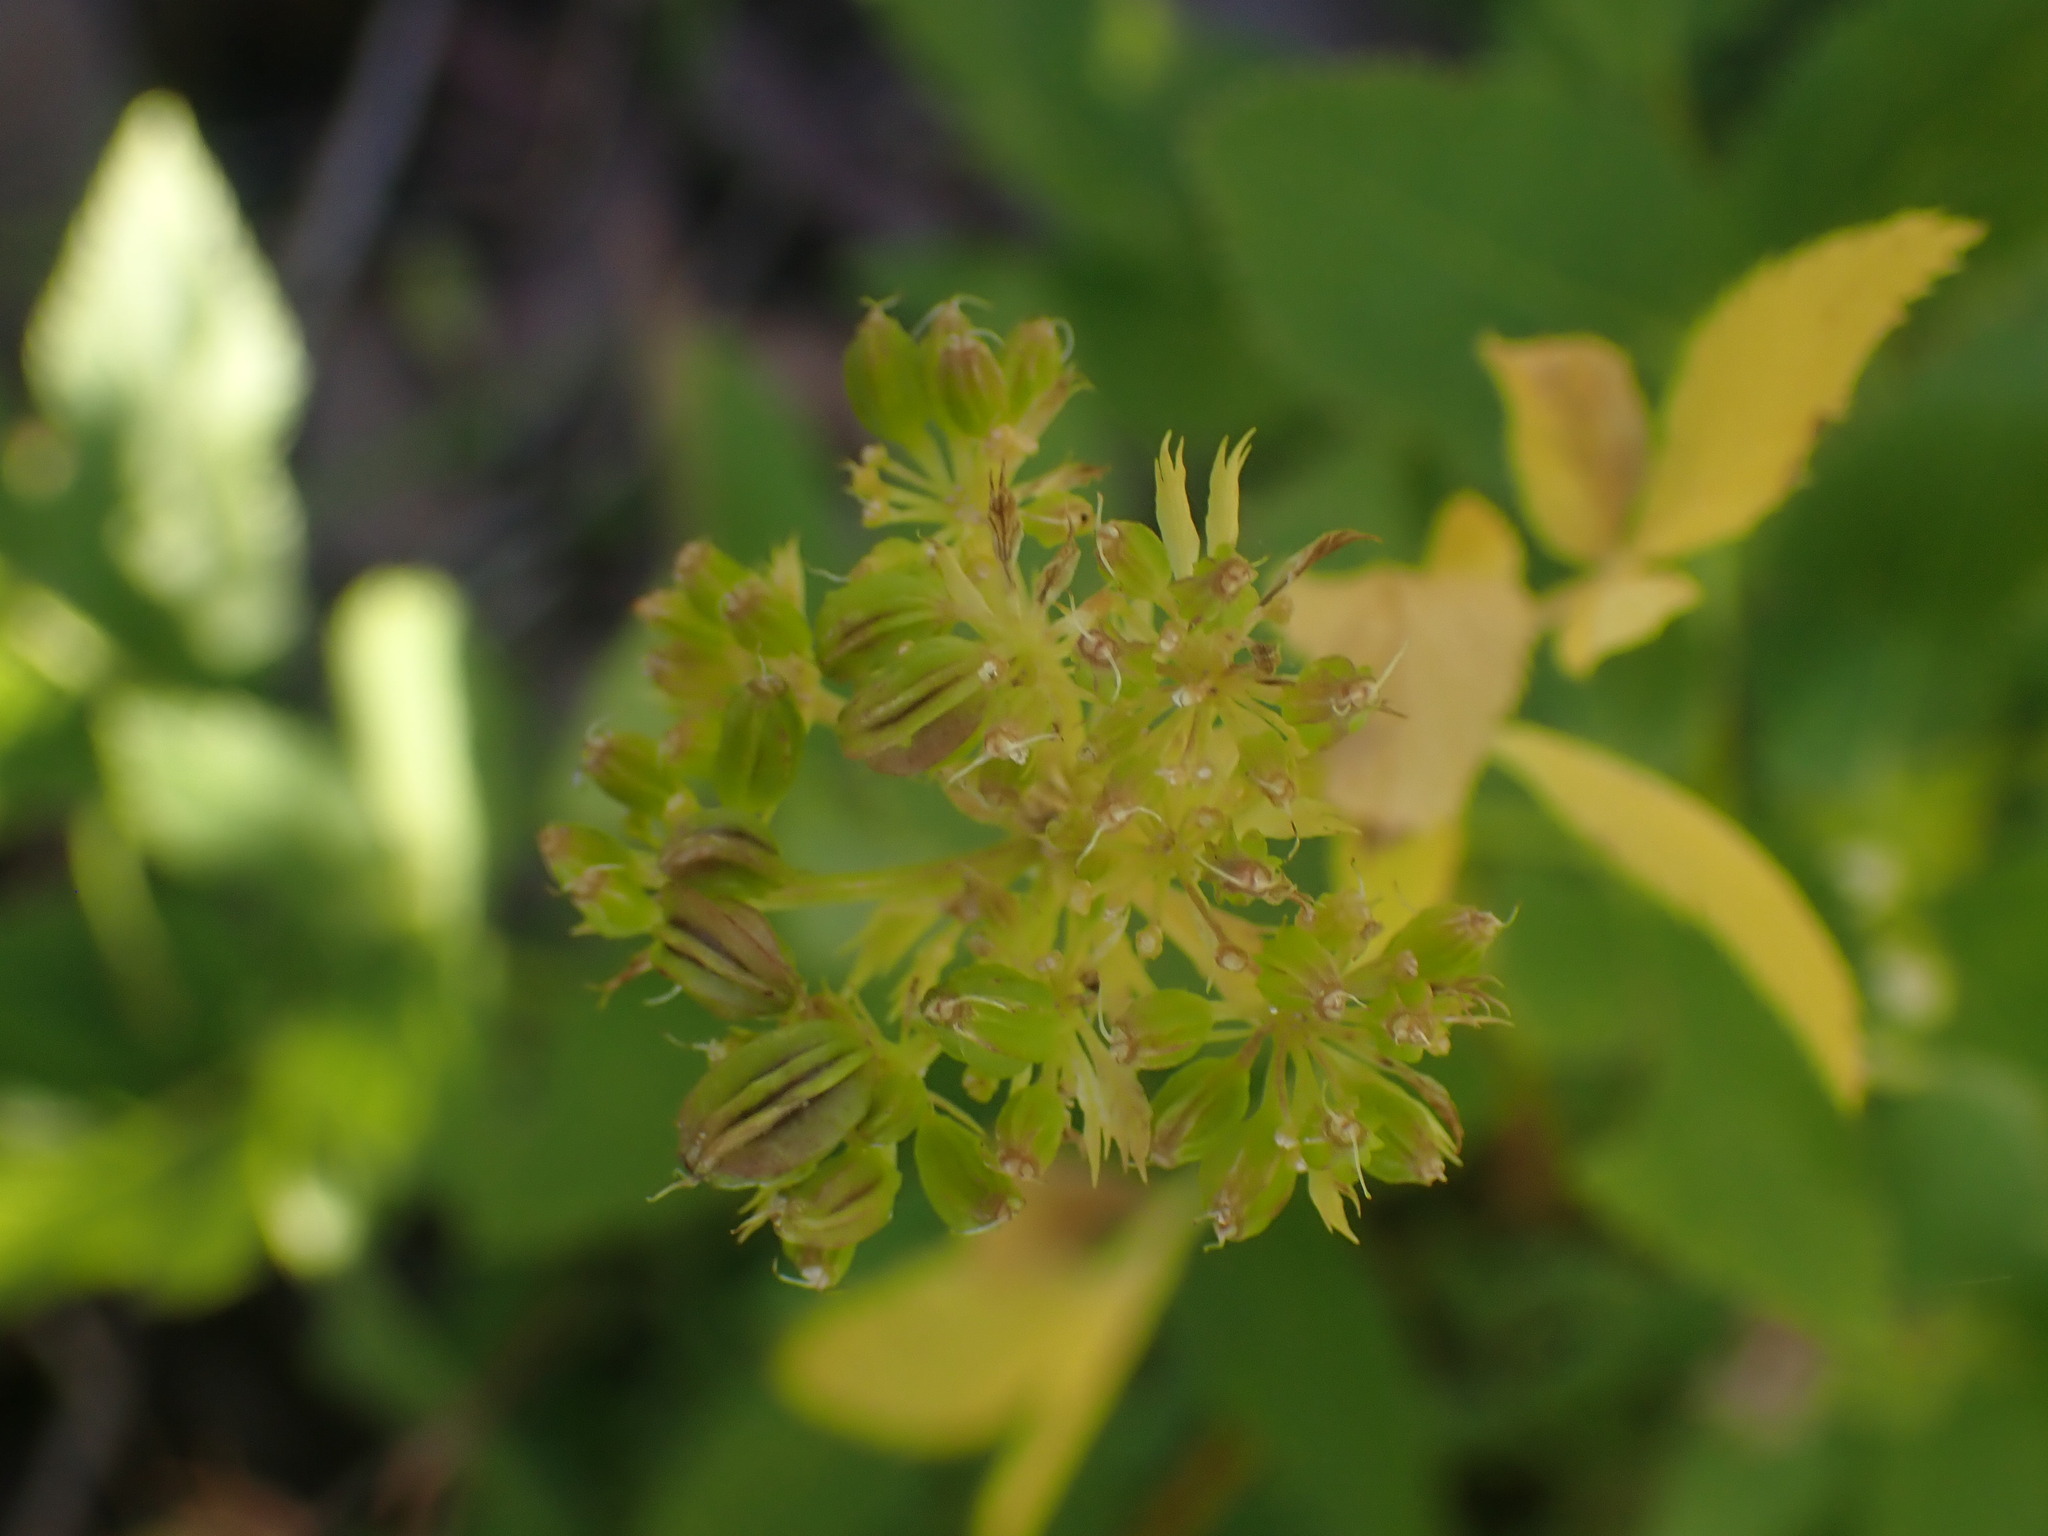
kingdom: Plantae
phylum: Tracheophyta
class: Magnoliopsida
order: Apiales
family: Apiaceae
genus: Angelica
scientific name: Angelica dawsonii
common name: Dawson's angelica
